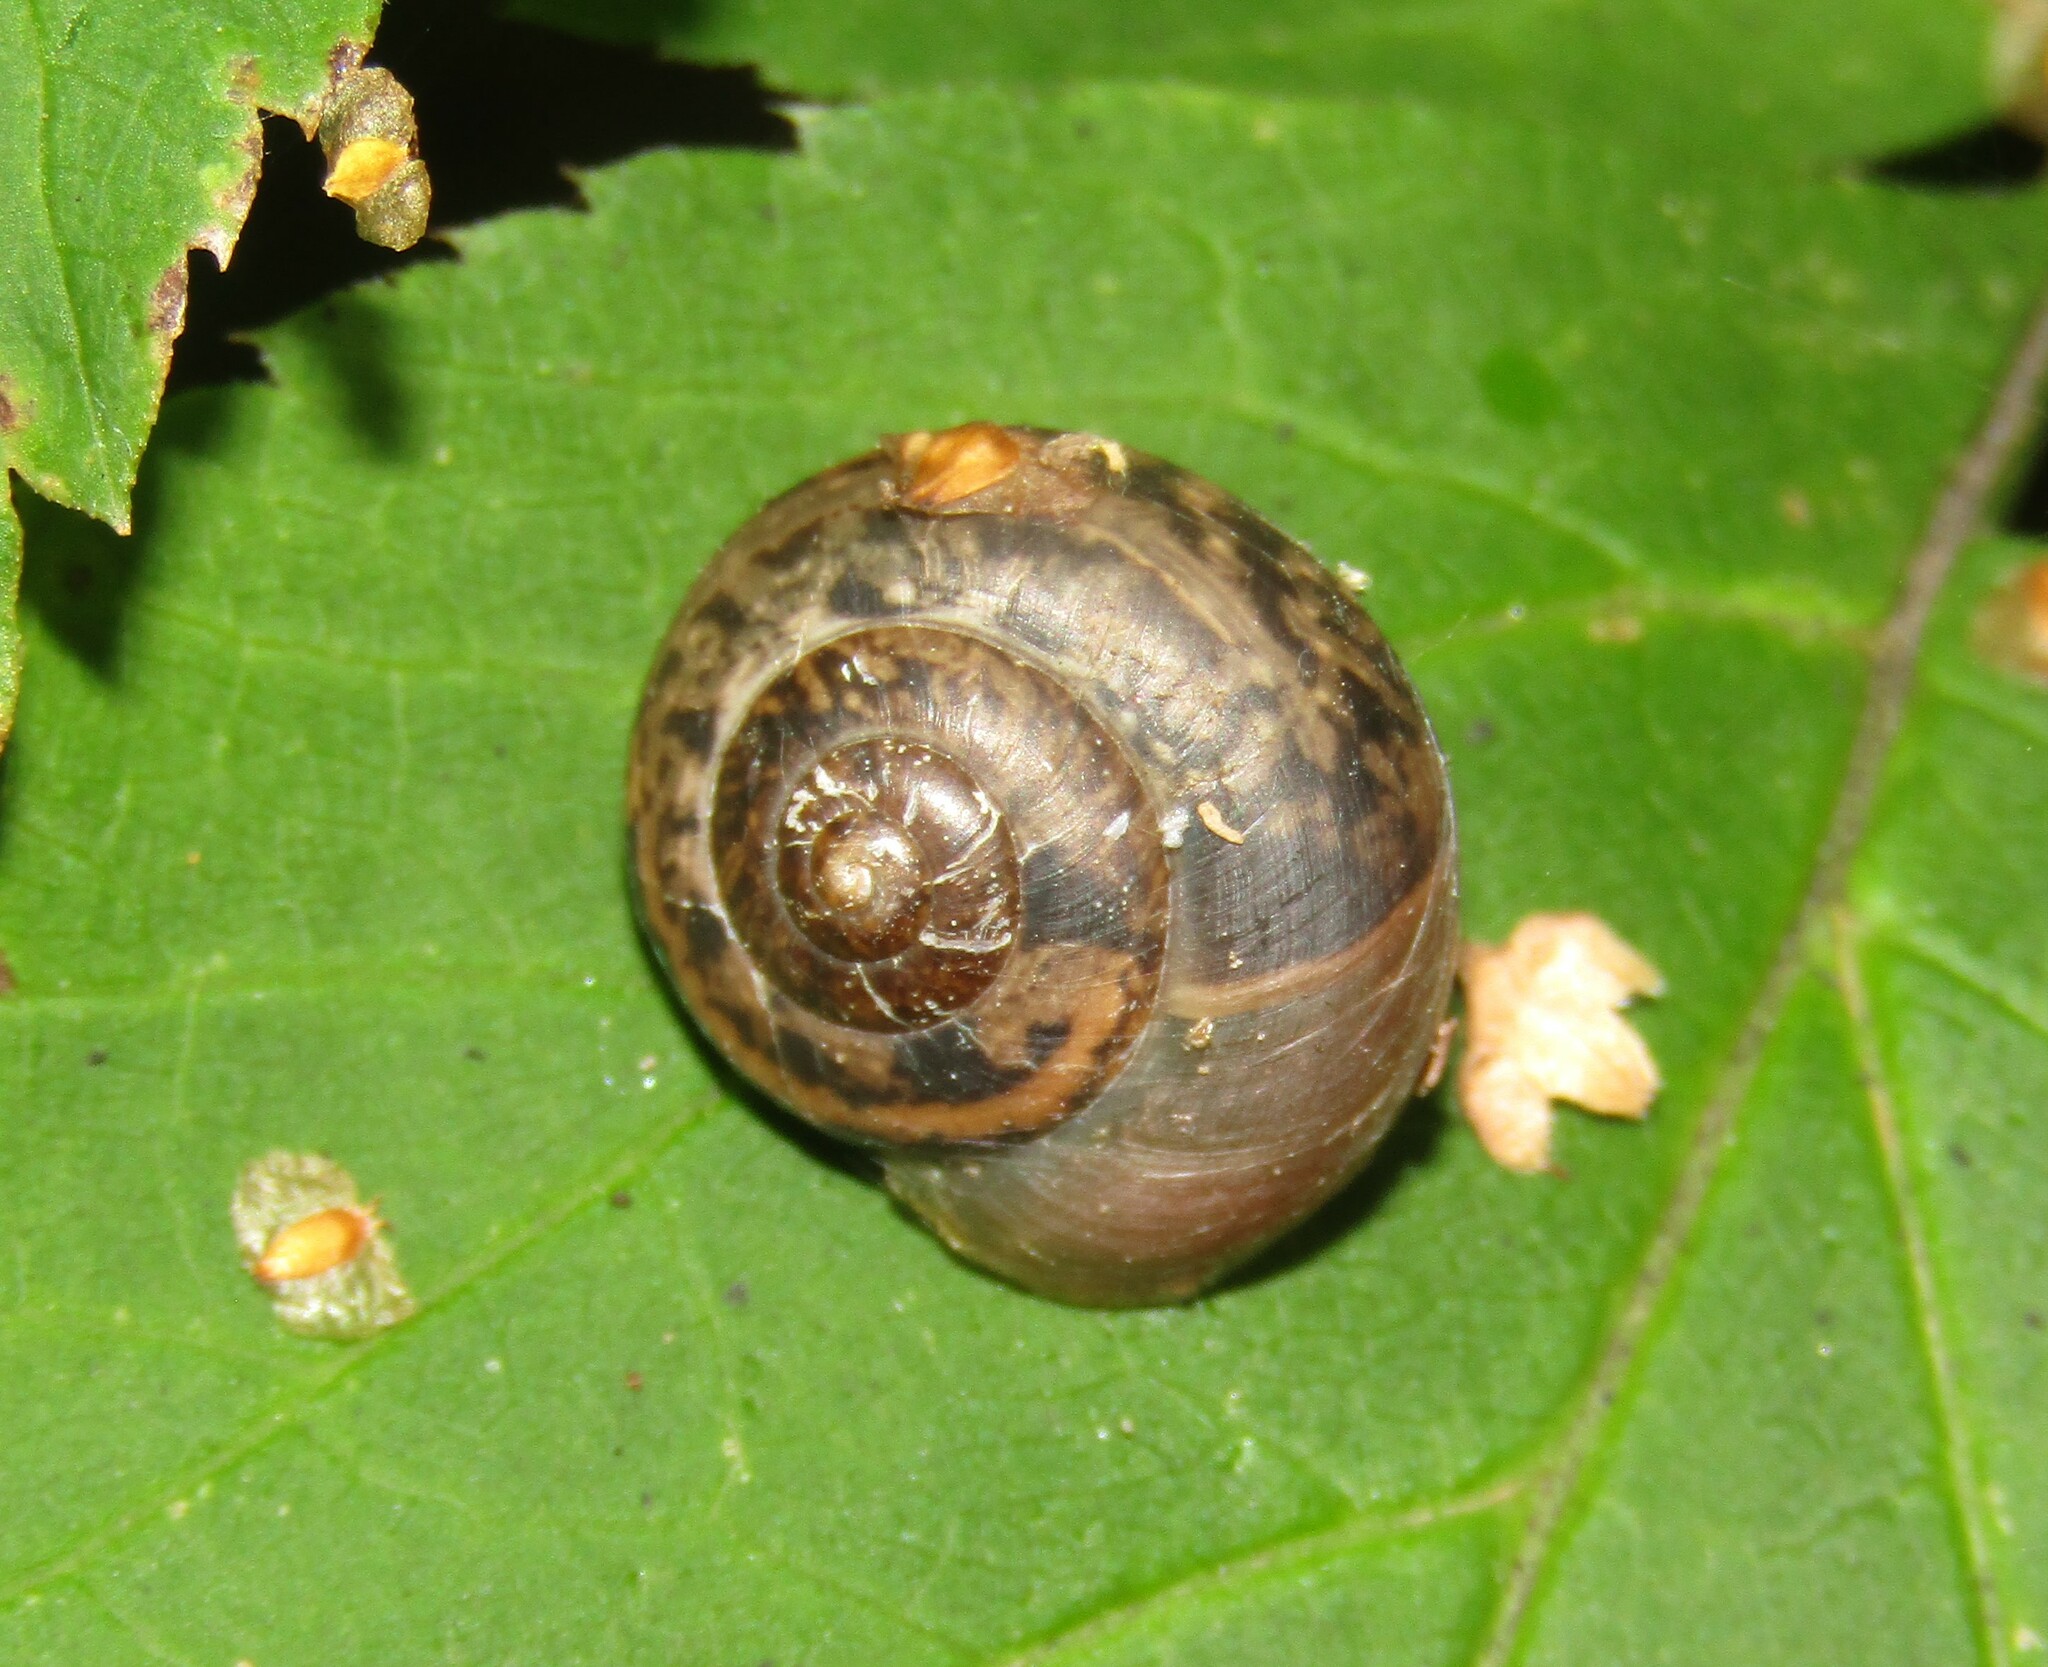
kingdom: Animalia
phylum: Mollusca
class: Gastropoda
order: Stylommatophora
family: Camaenidae
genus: Fruticicola
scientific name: Fruticicola fruticum
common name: Bush snail
